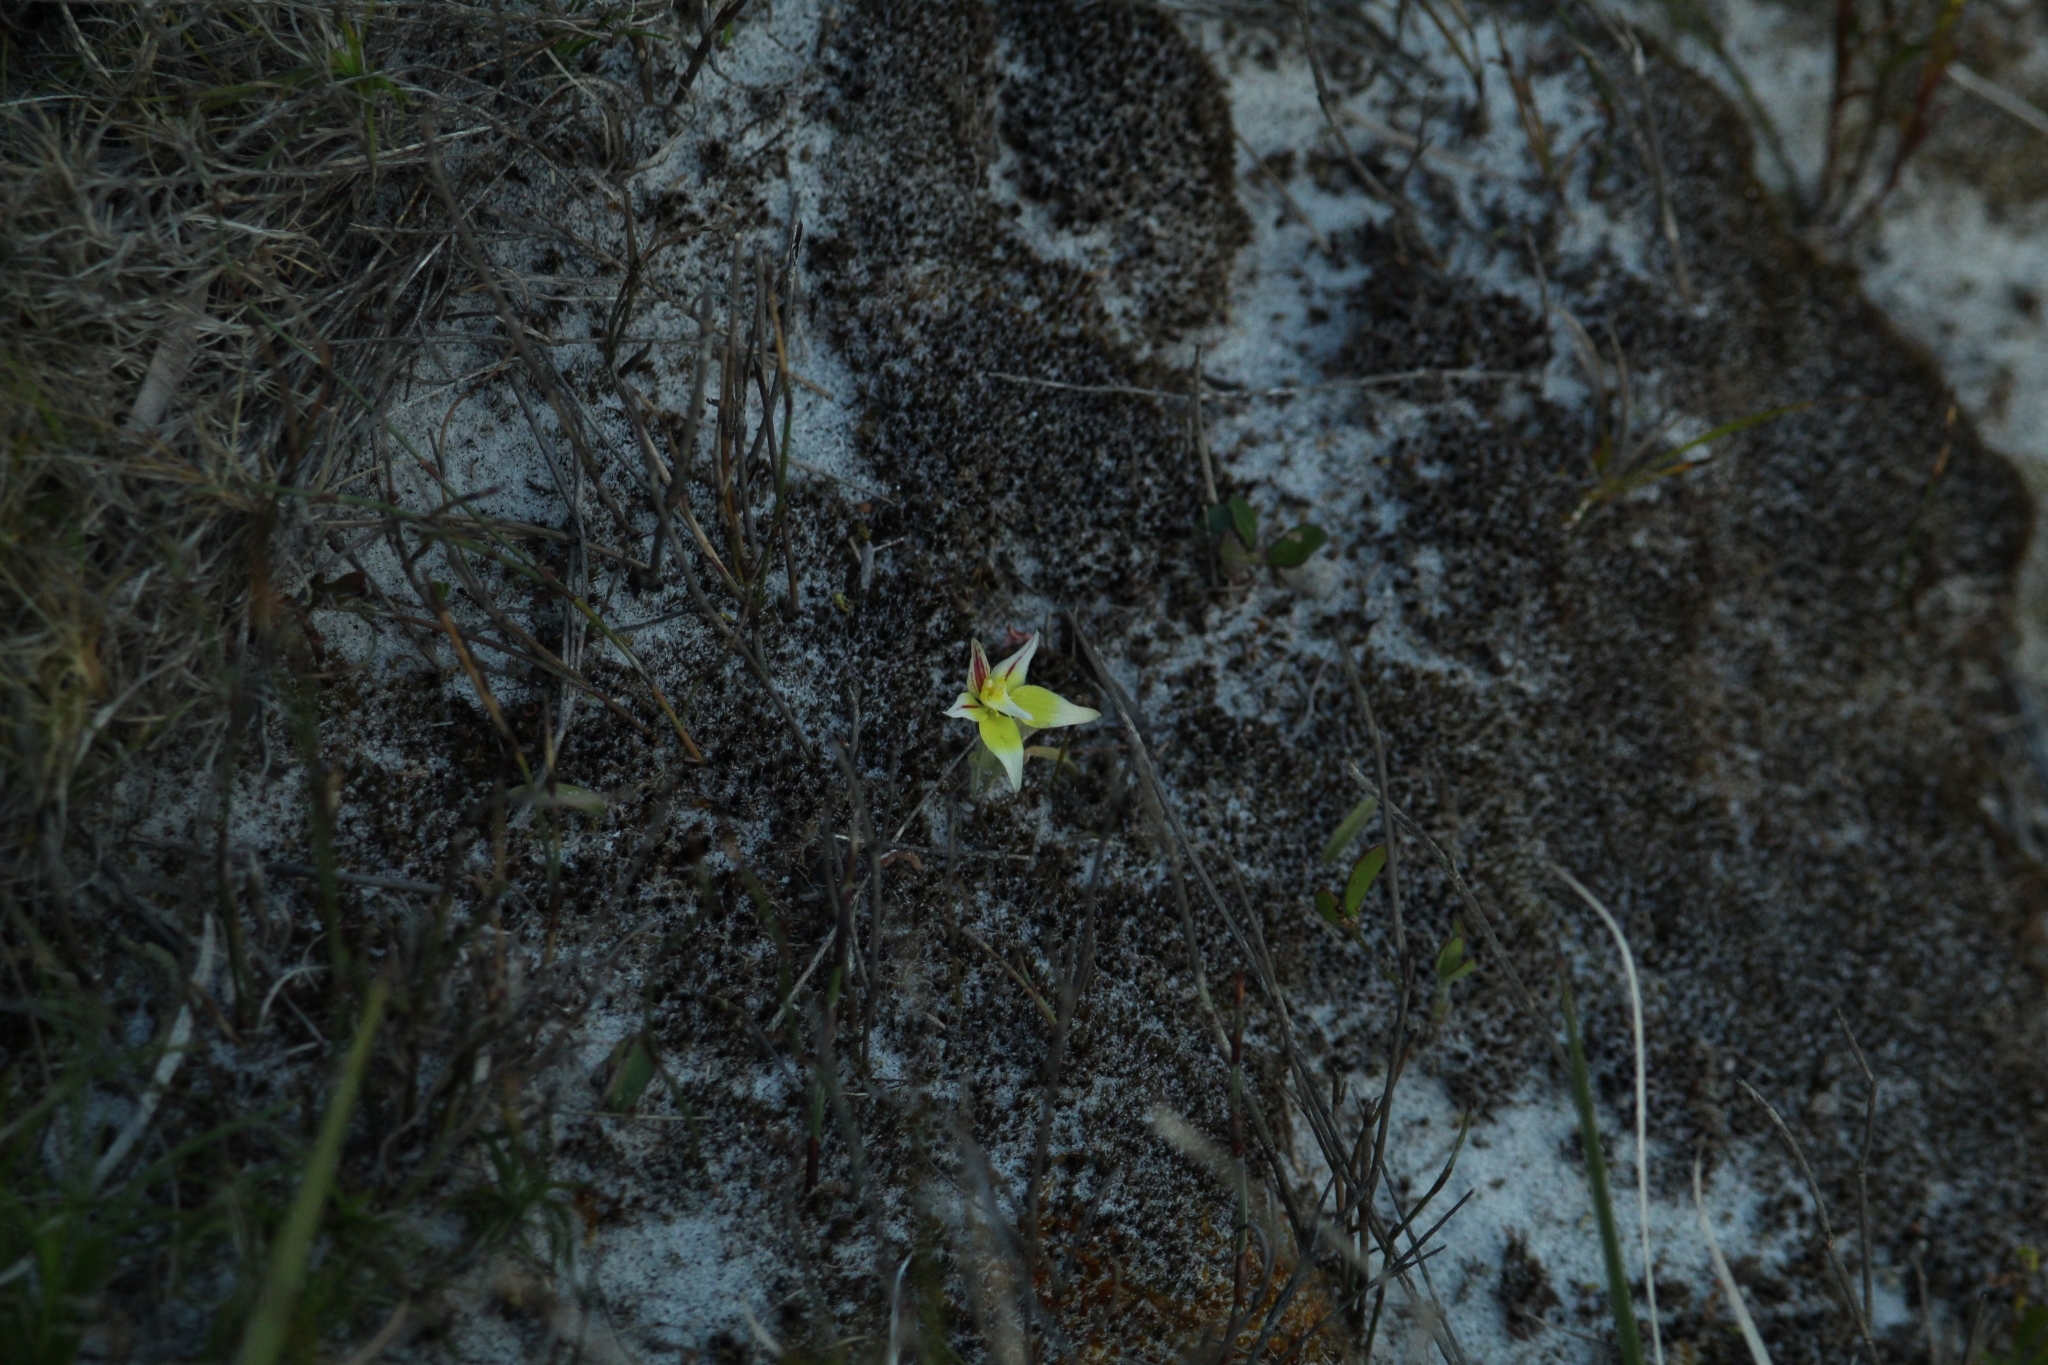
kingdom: Plantae
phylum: Tracheophyta
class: Liliopsida
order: Asparagales
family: Orchidaceae
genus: Caladenia
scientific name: Caladenia flava
